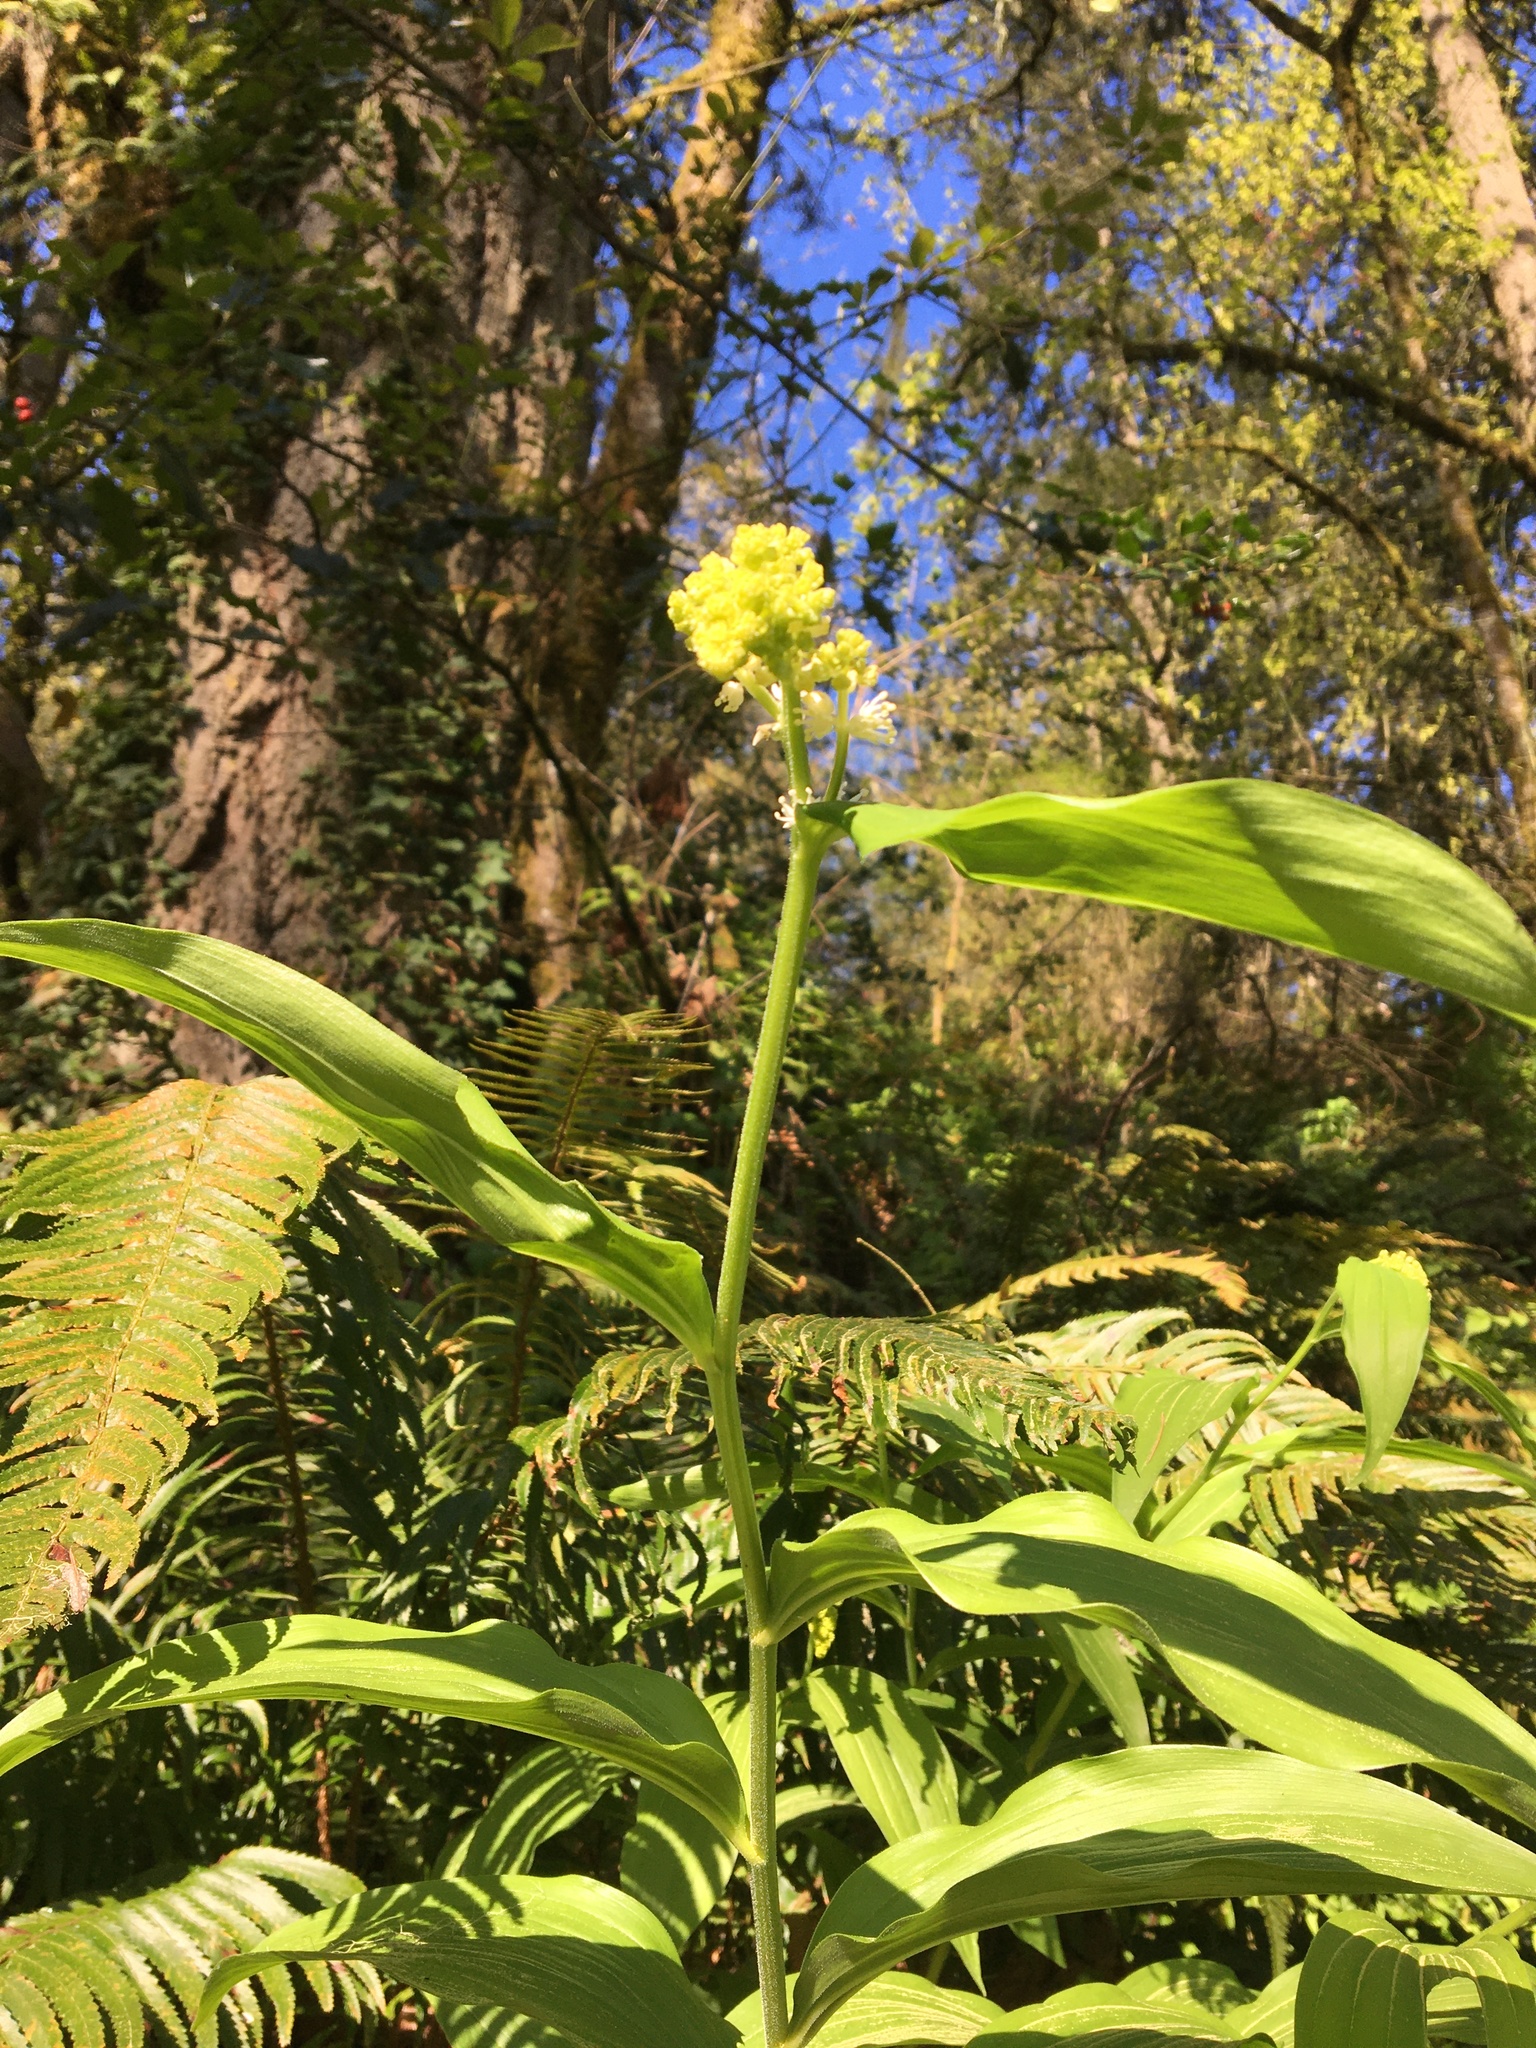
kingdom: Plantae
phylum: Tracheophyta
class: Liliopsida
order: Asparagales
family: Asparagaceae
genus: Maianthemum
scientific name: Maianthemum racemosum
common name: False spikenard
